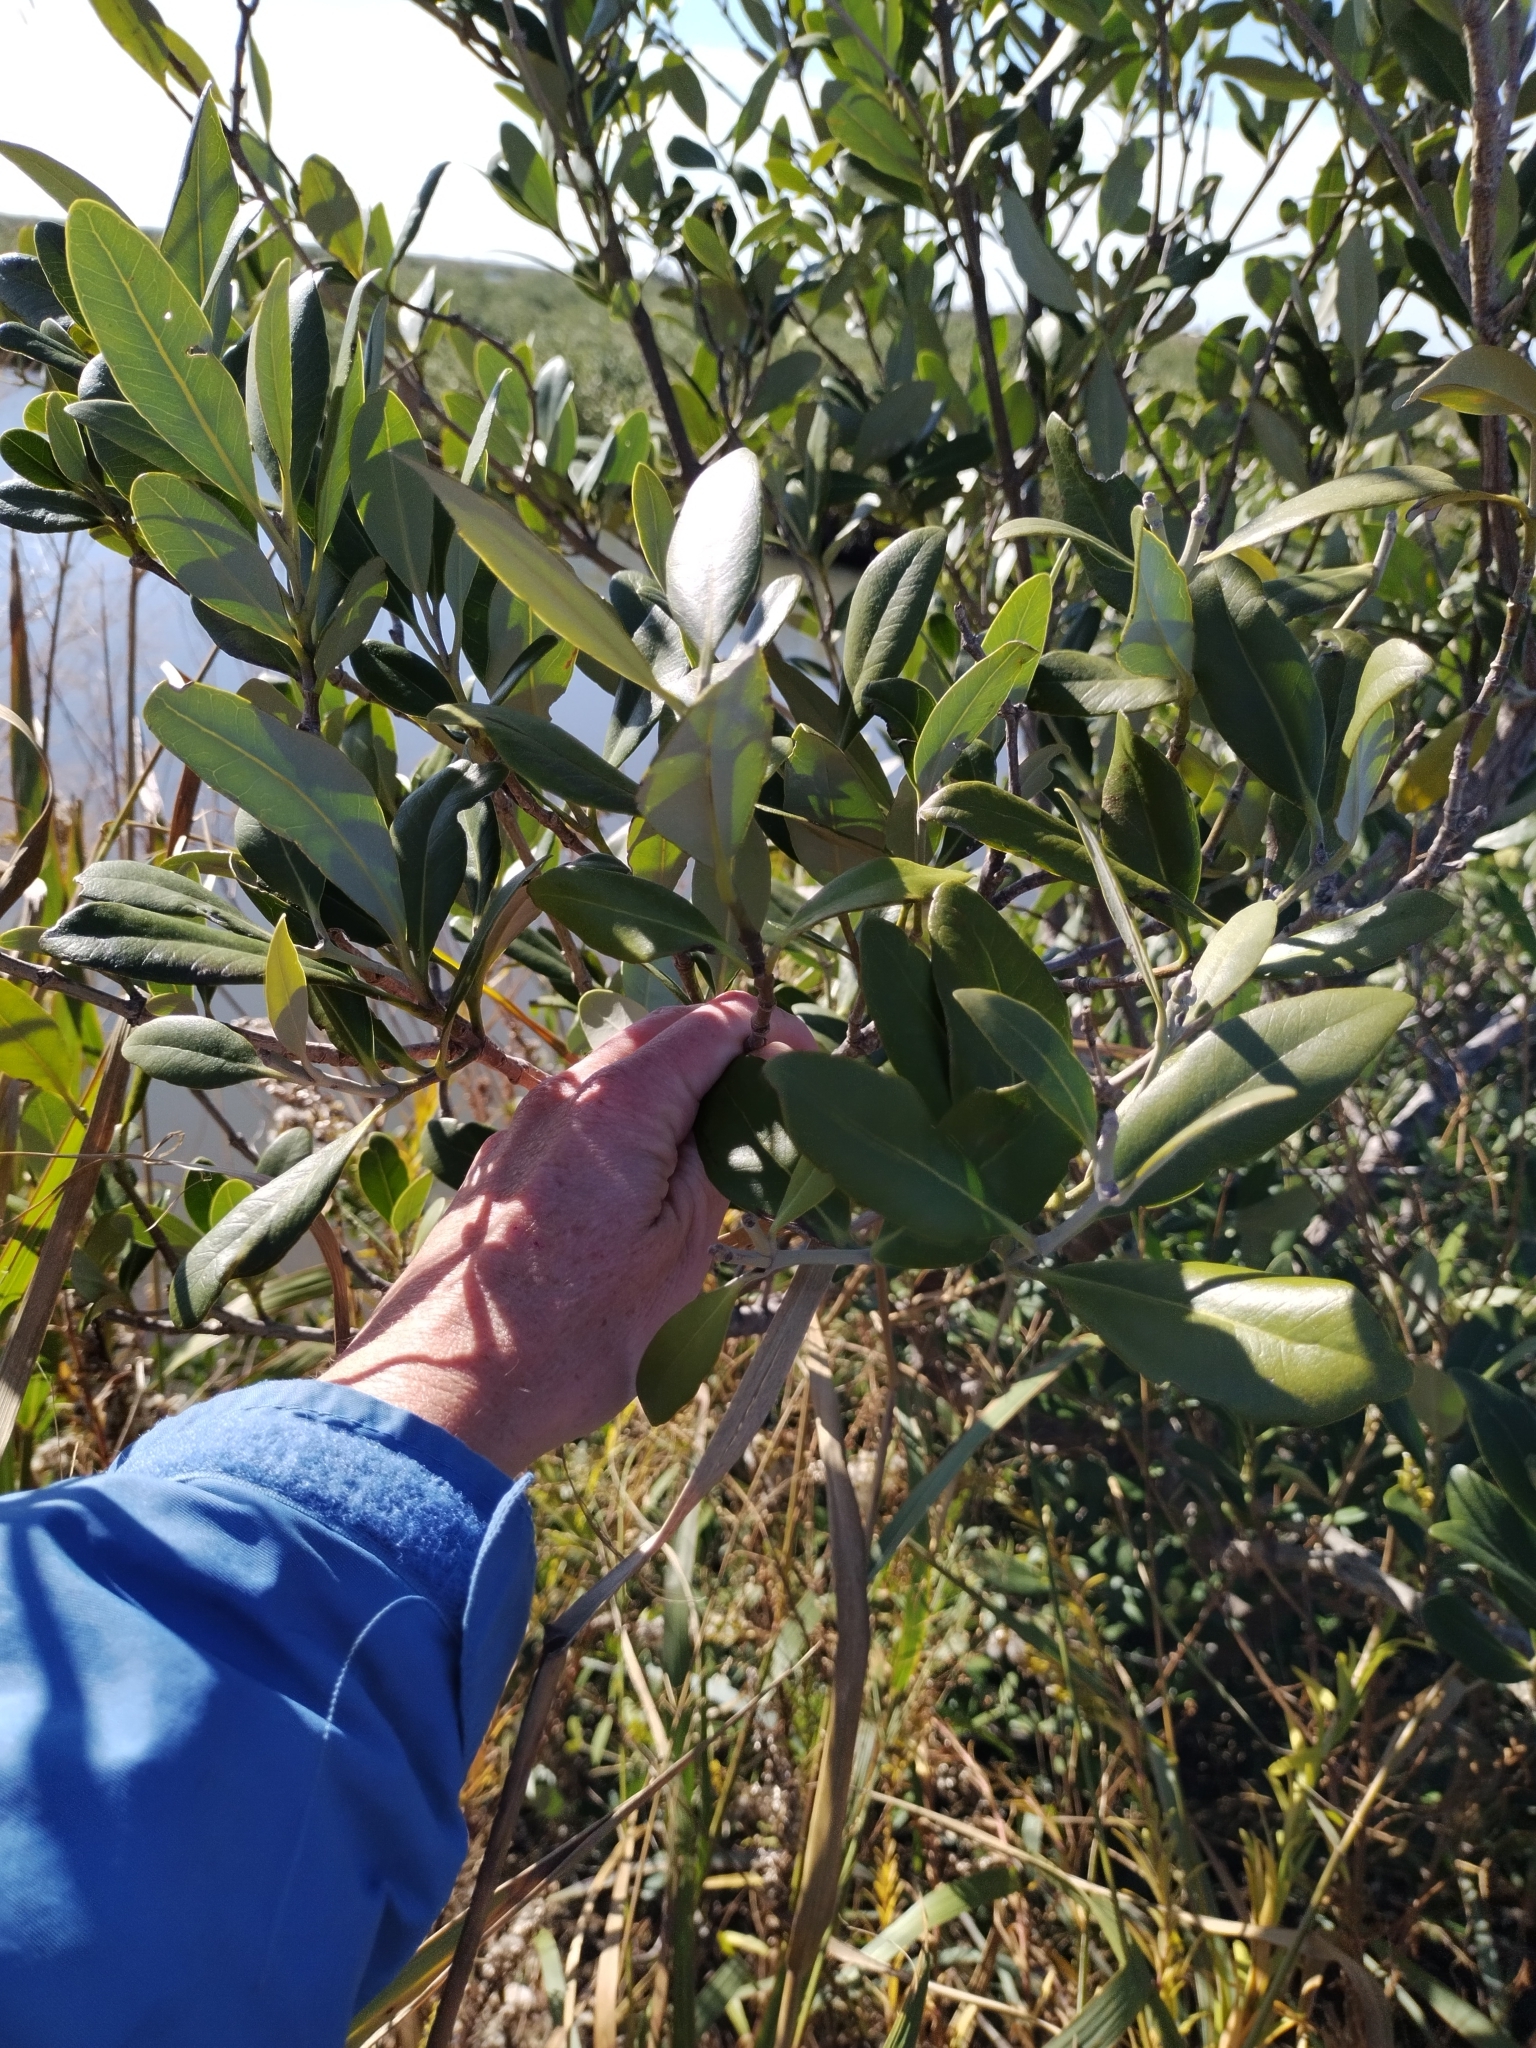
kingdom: Plantae
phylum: Tracheophyta
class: Magnoliopsida
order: Lamiales
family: Acanthaceae
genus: Avicennia
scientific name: Avicennia germinans
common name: Black mangrove
